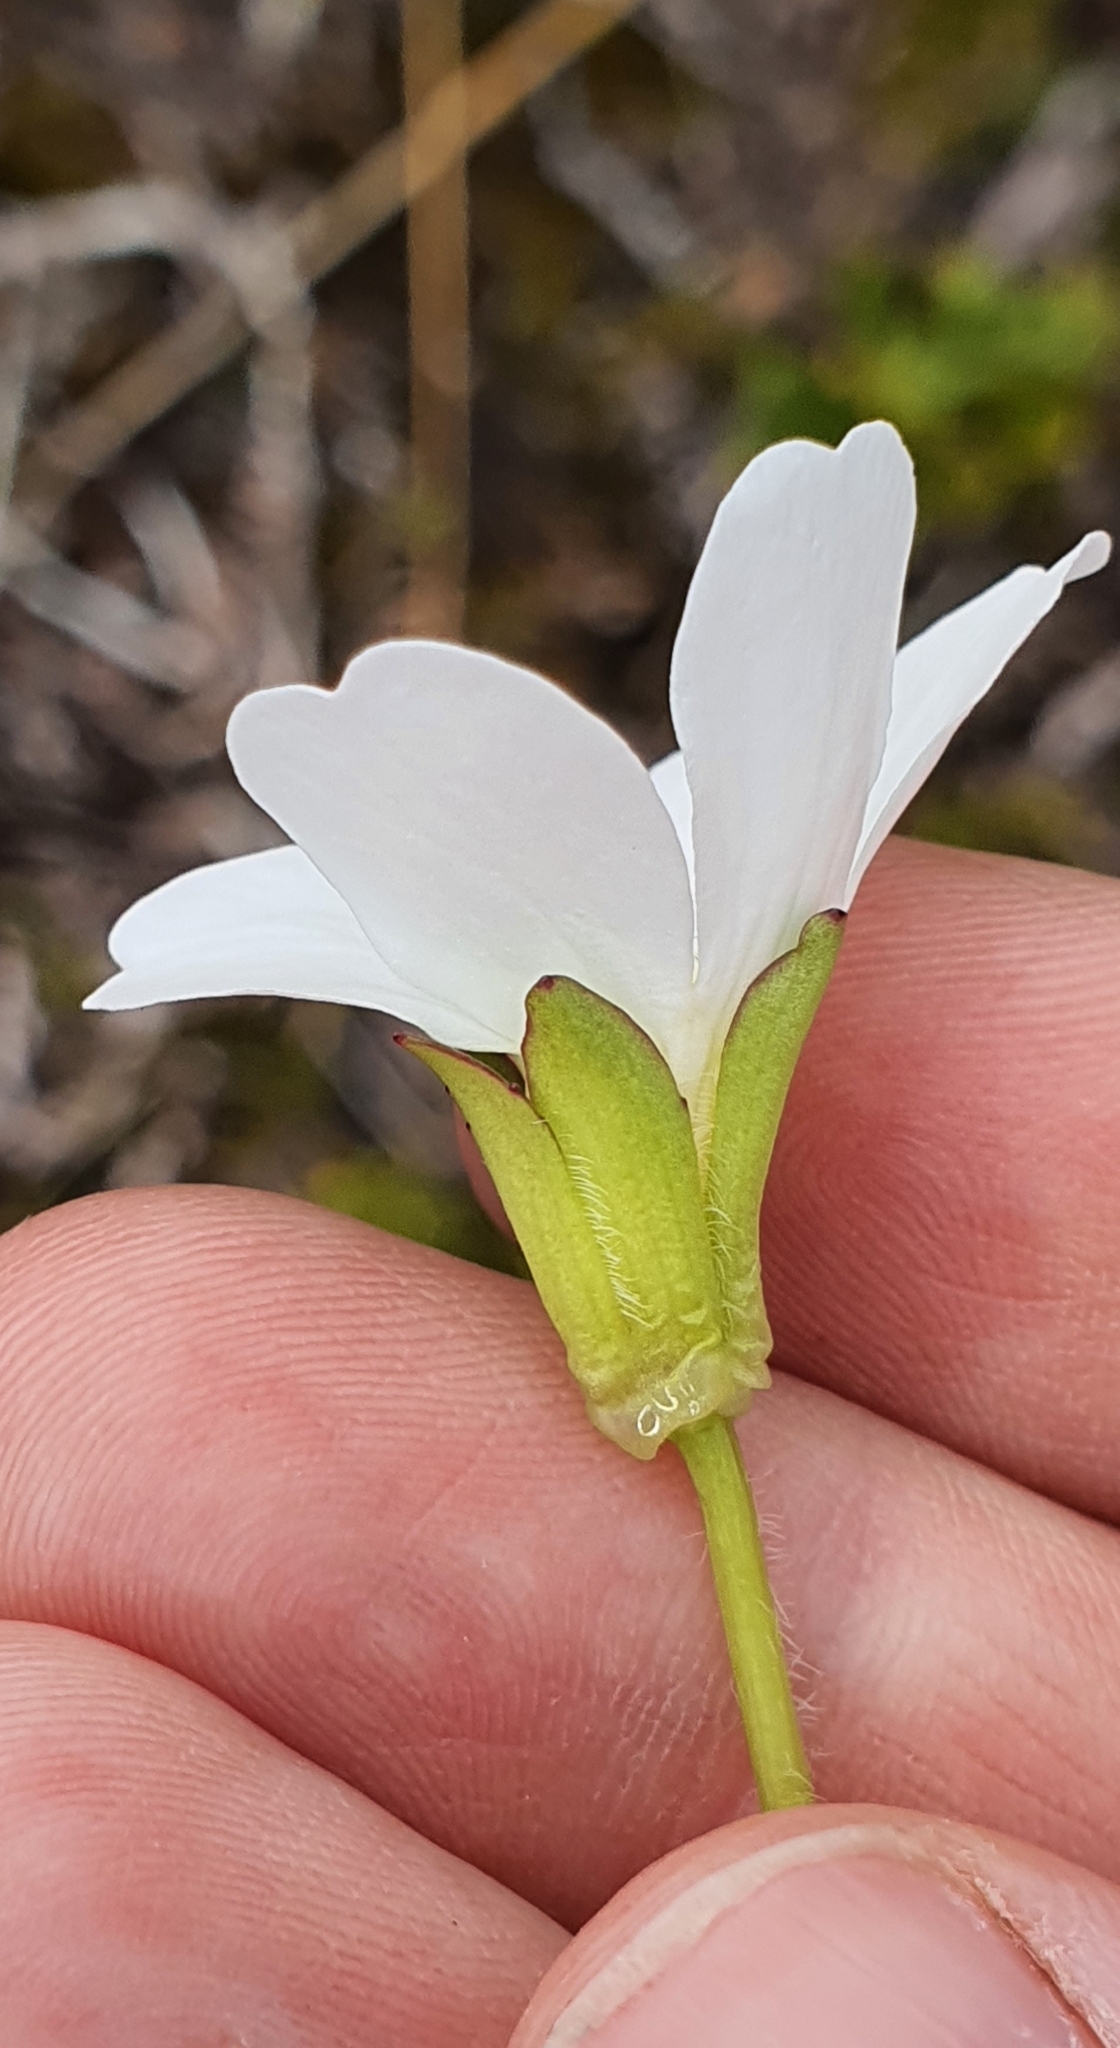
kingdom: Plantae
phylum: Tracheophyta
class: Magnoliopsida
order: Lamiales
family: Plantaginaceae
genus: Ourisia
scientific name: Ourisia calycina
